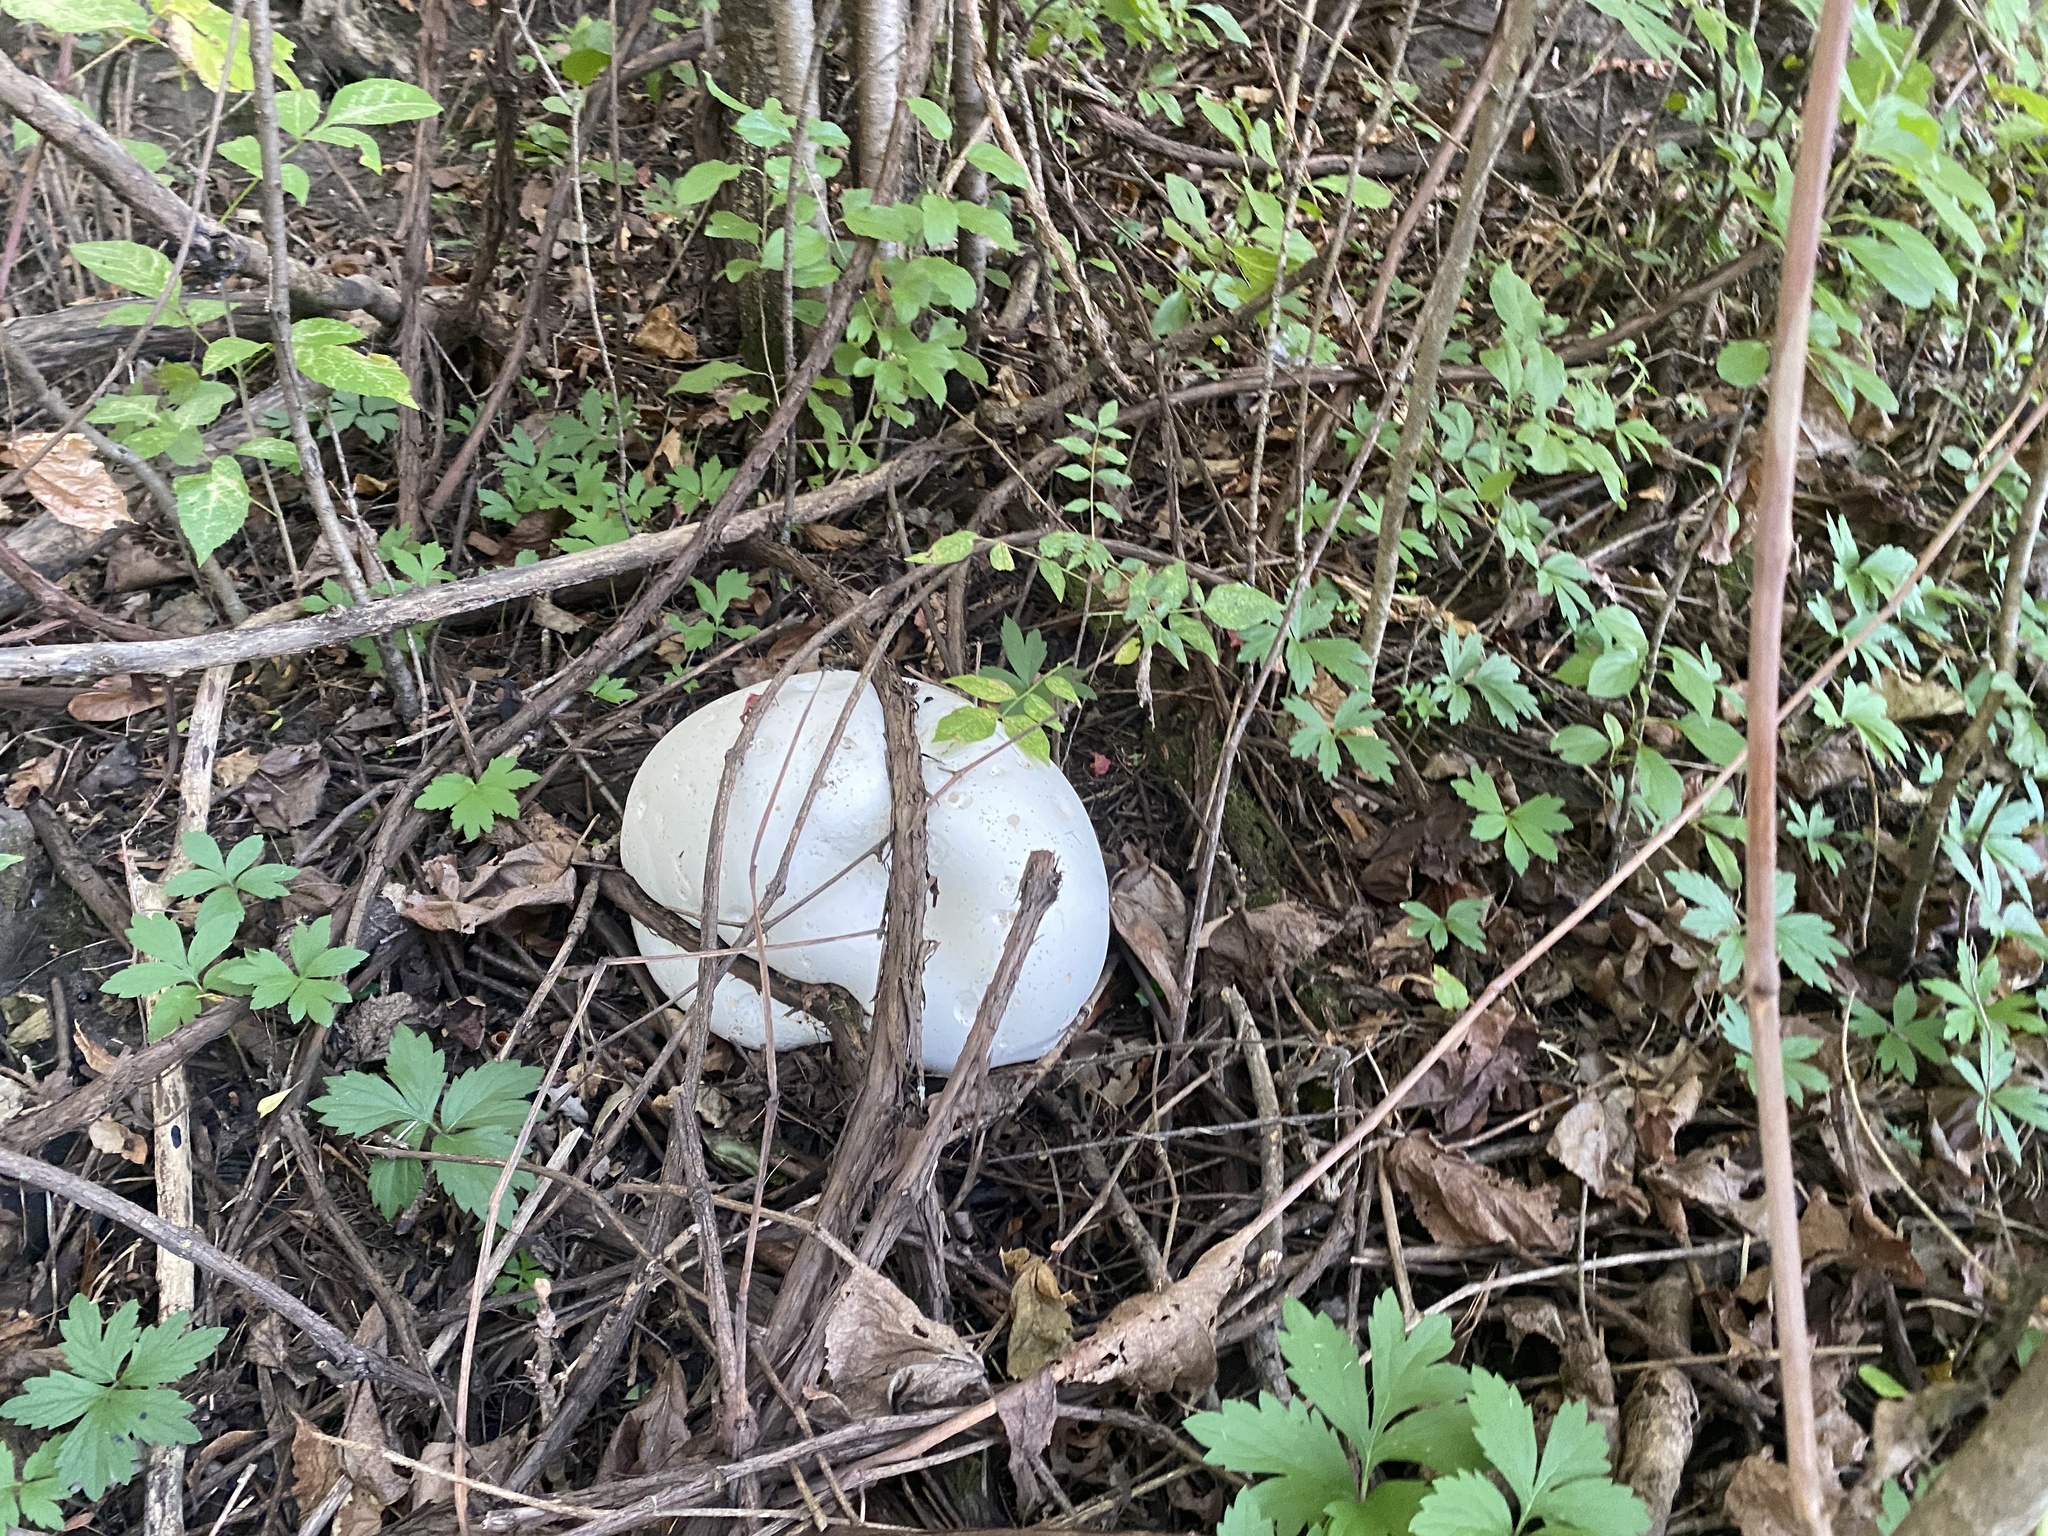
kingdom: Fungi
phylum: Basidiomycota
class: Agaricomycetes
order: Agaricales
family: Lycoperdaceae
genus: Calvatia
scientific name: Calvatia gigantea
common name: Giant puffball
